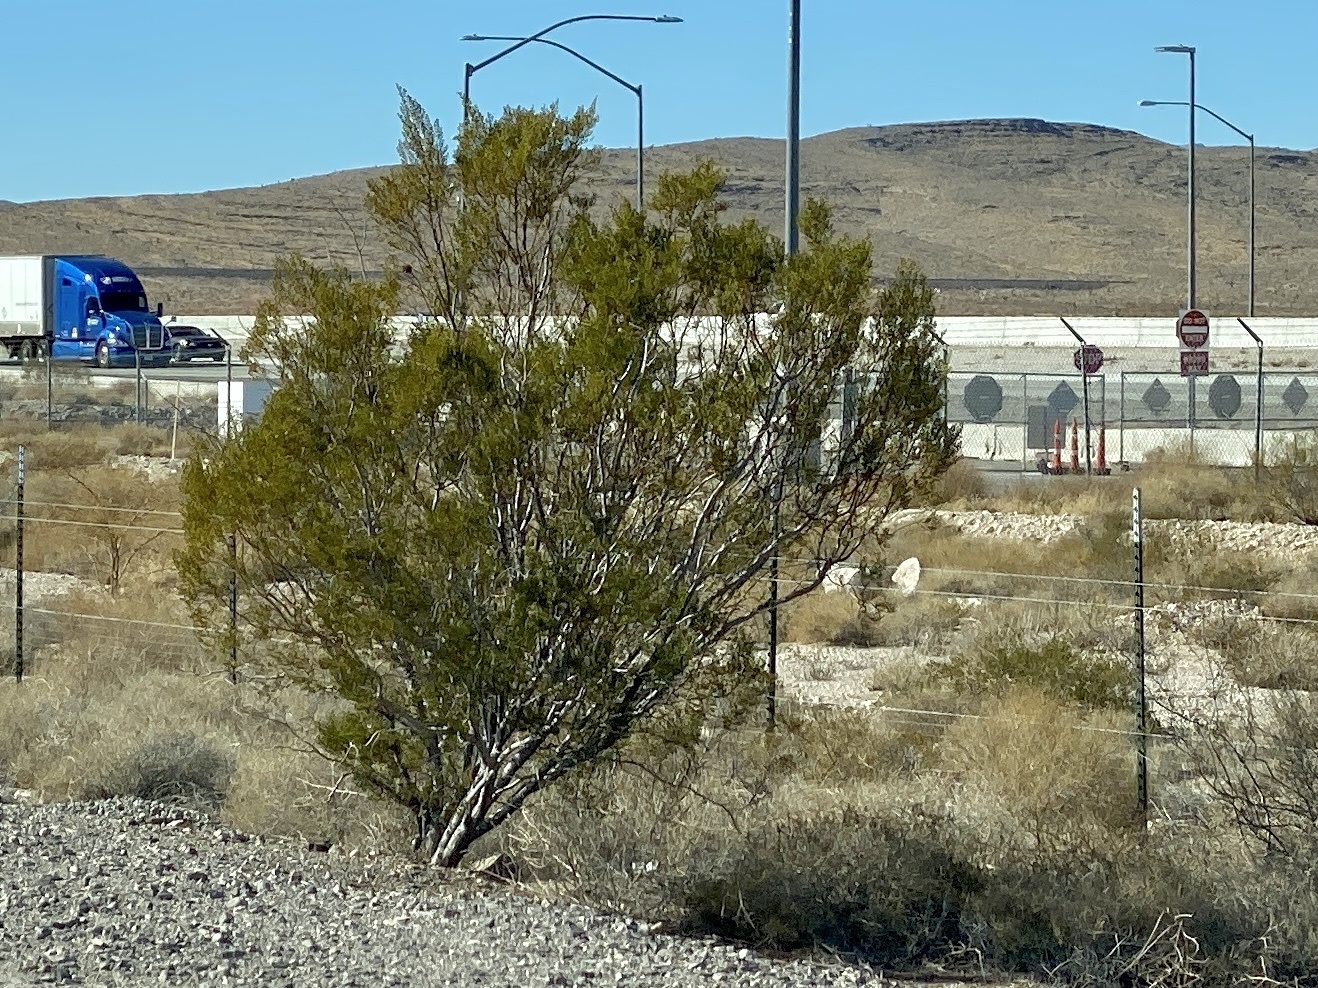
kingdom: Plantae
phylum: Tracheophyta
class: Magnoliopsida
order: Zygophyllales
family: Zygophyllaceae
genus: Larrea
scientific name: Larrea tridentata
